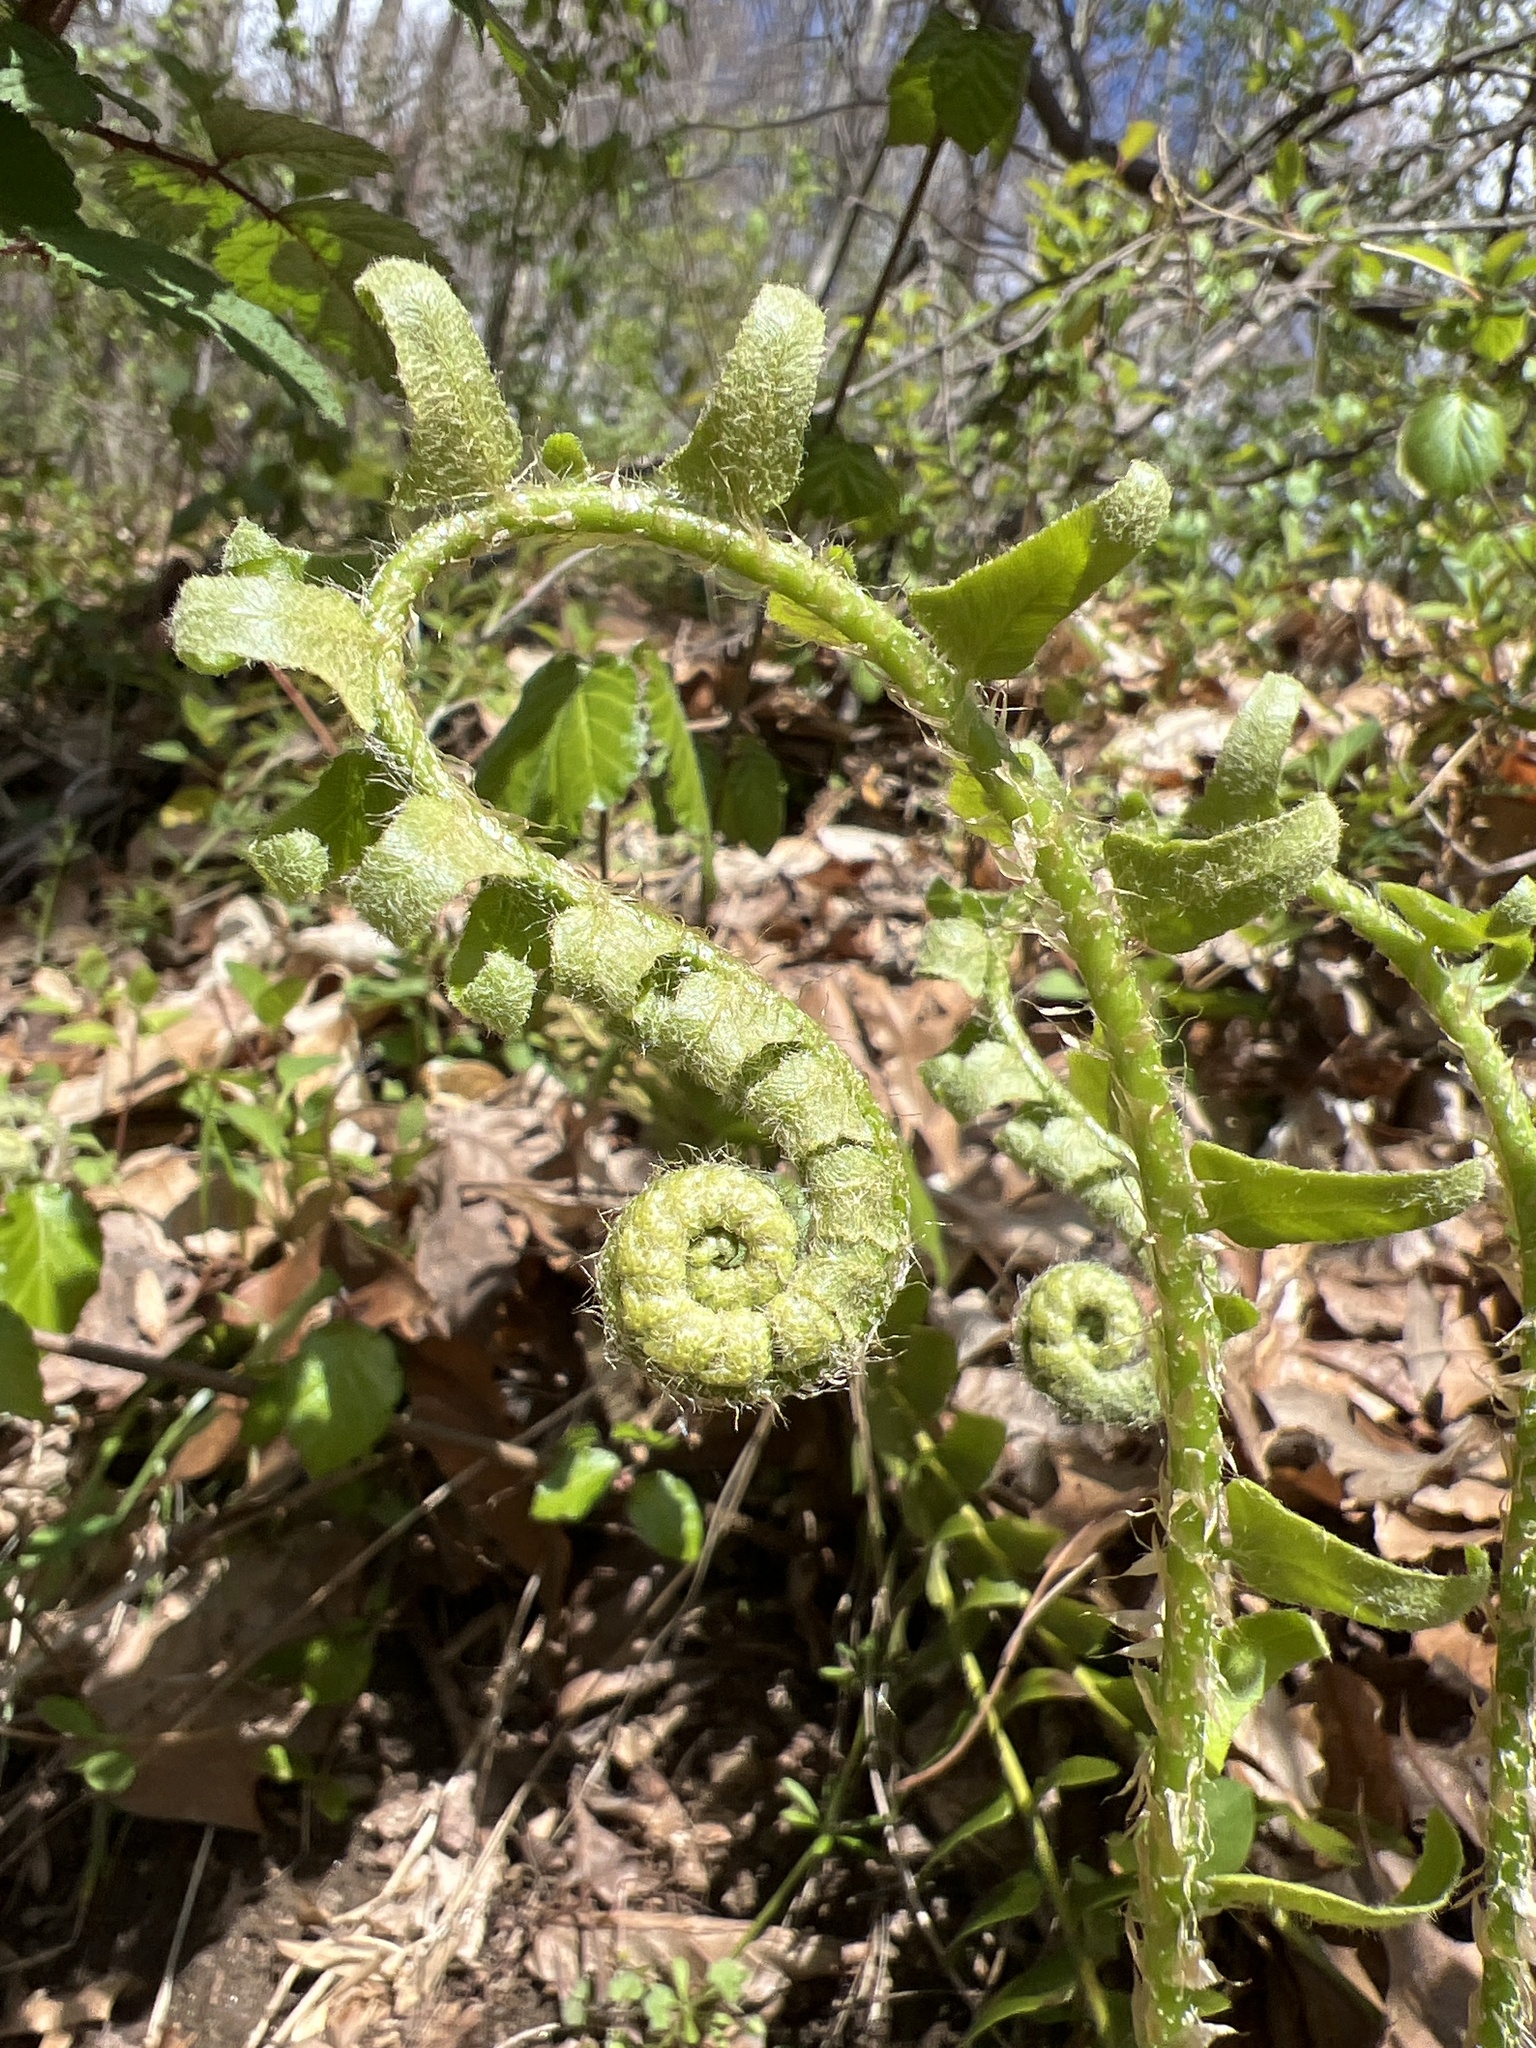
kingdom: Plantae
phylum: Tracheophyta
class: Polypodiopsida
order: Polypodiales
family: Dryopteridaceae
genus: Polystichum
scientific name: Polystichum acrostichoides
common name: Christmas fern
